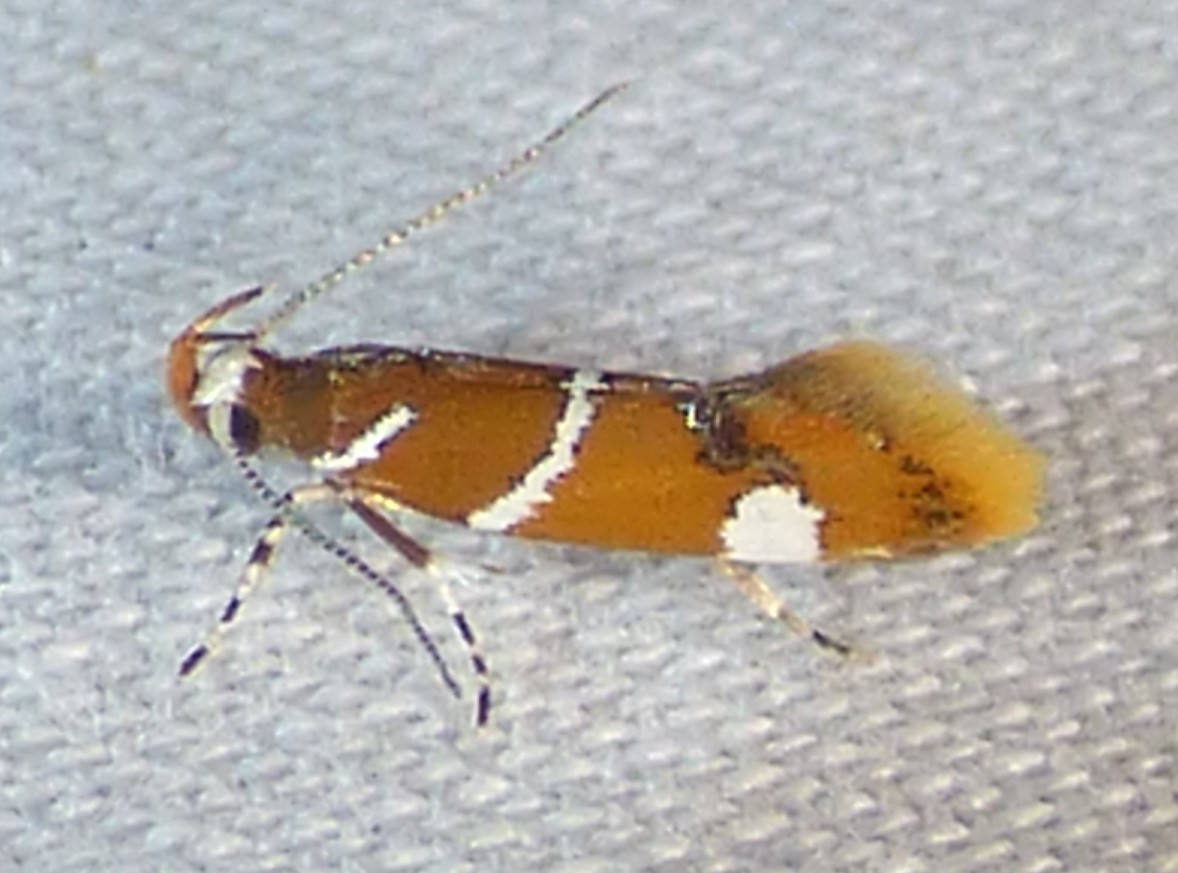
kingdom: Animalia
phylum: Arthropoda
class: Insecta
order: Lepidoptera
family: Oecophoridae
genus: Promalactis
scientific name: Promalactis suzukiella
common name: Moth
